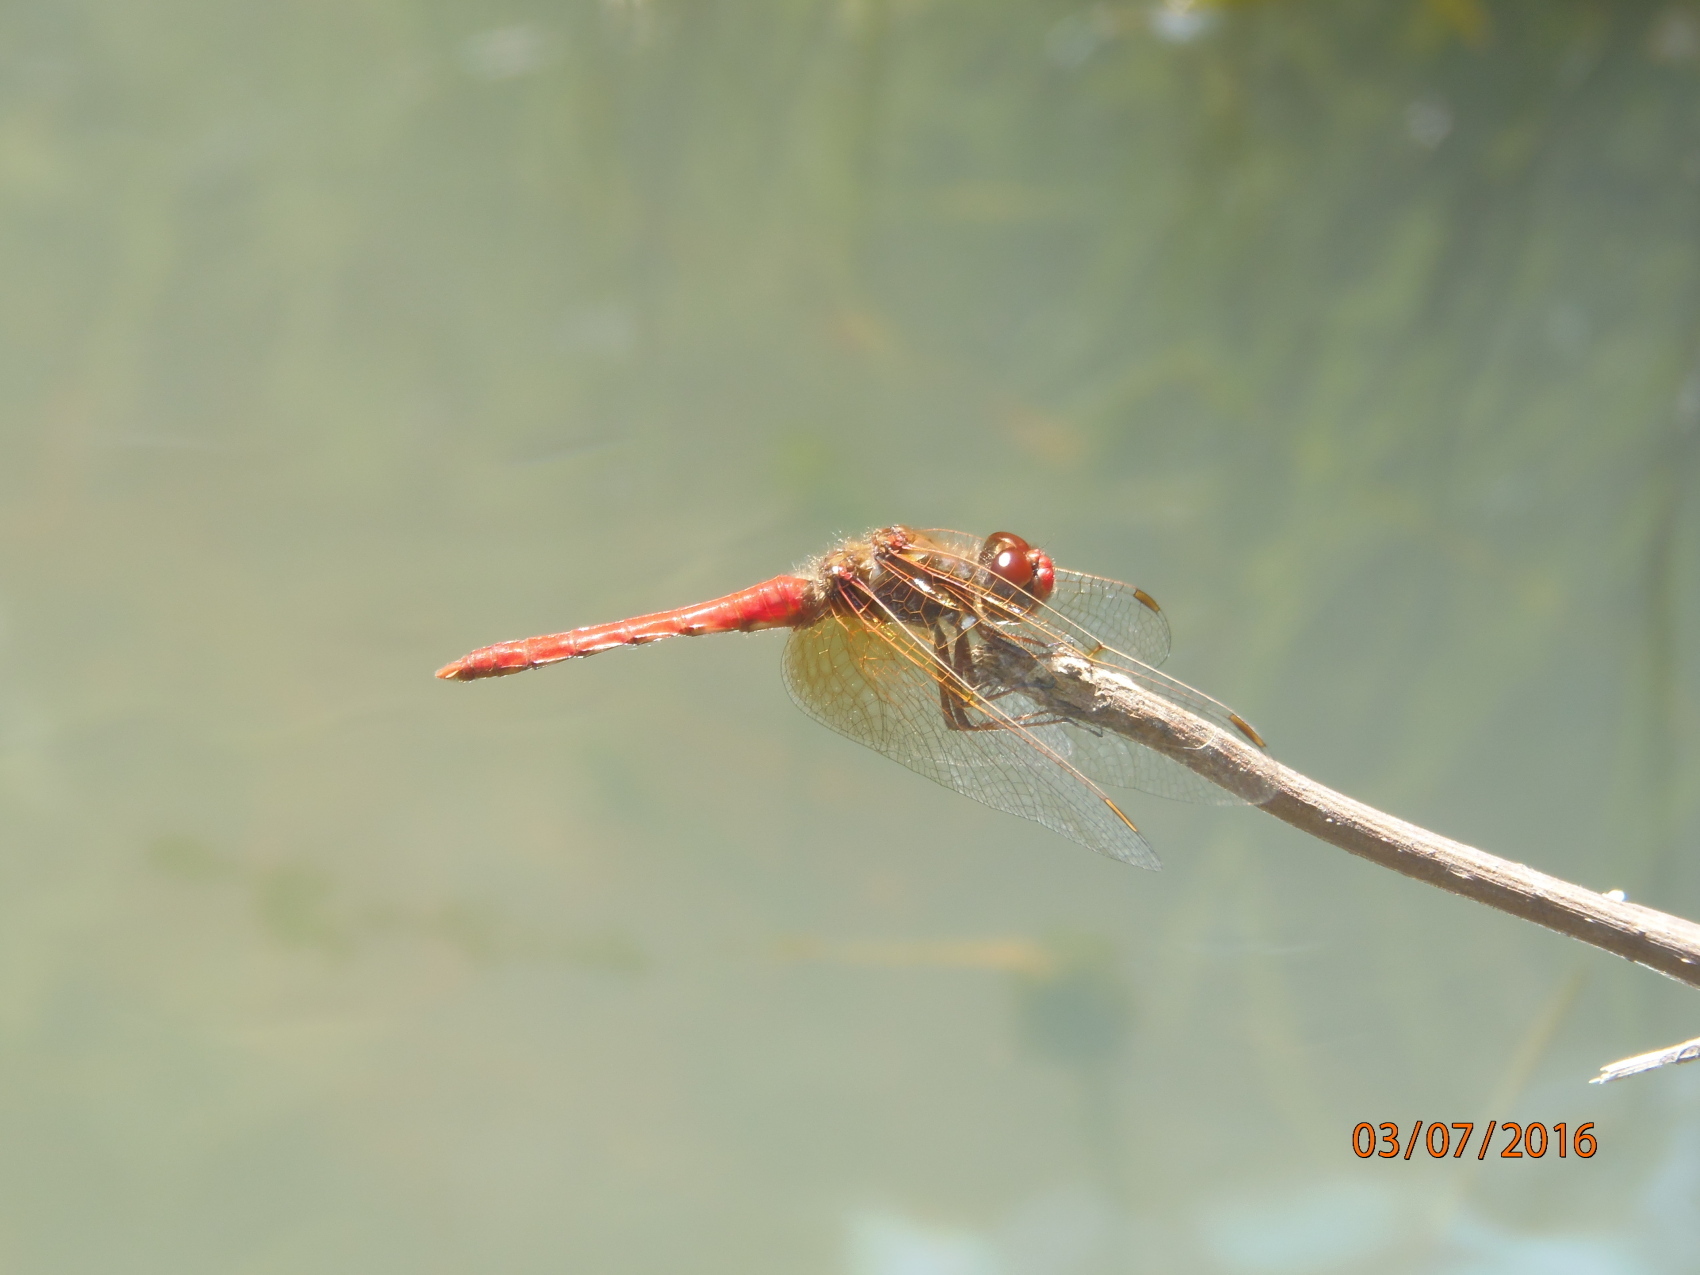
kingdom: Animalia
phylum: Arthropoda
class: Insecta
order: Odonata
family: Libellulidae
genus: Sympetrum
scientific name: Sympetrum illotum
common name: Cardinal meadowhawk
